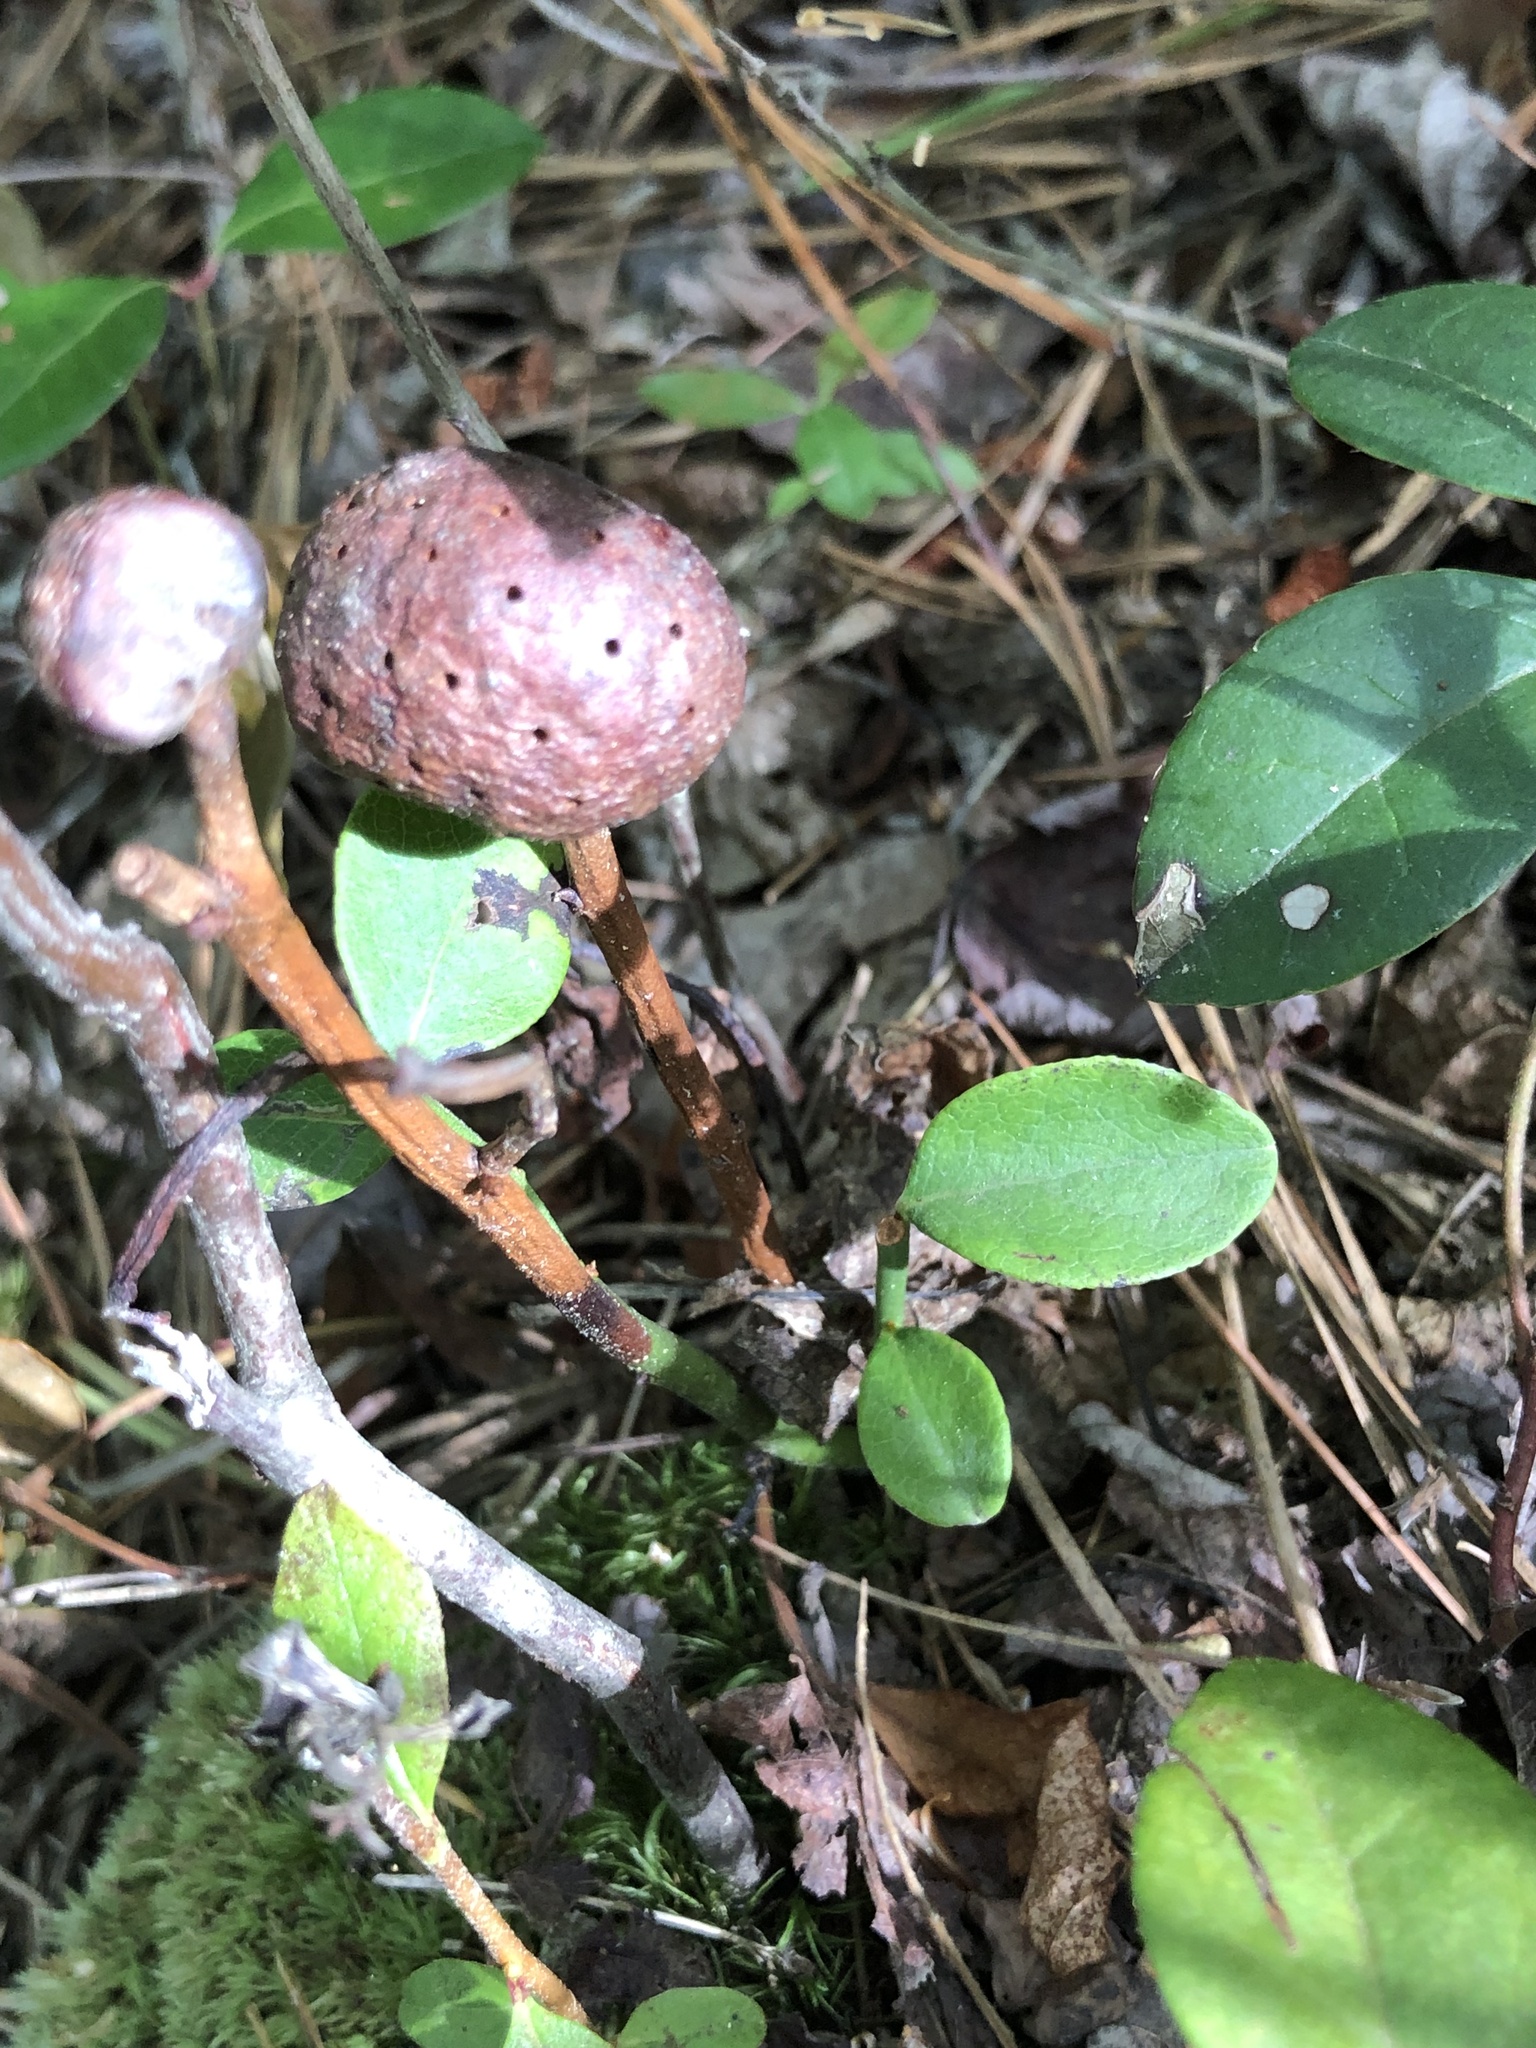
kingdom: Animalia
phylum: Arthropoda
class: Insecta
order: Hymenoptera
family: Pteromalidae
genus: Hemadas
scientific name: Hemadas nubilipennis
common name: Blueberry stem gall wasp
